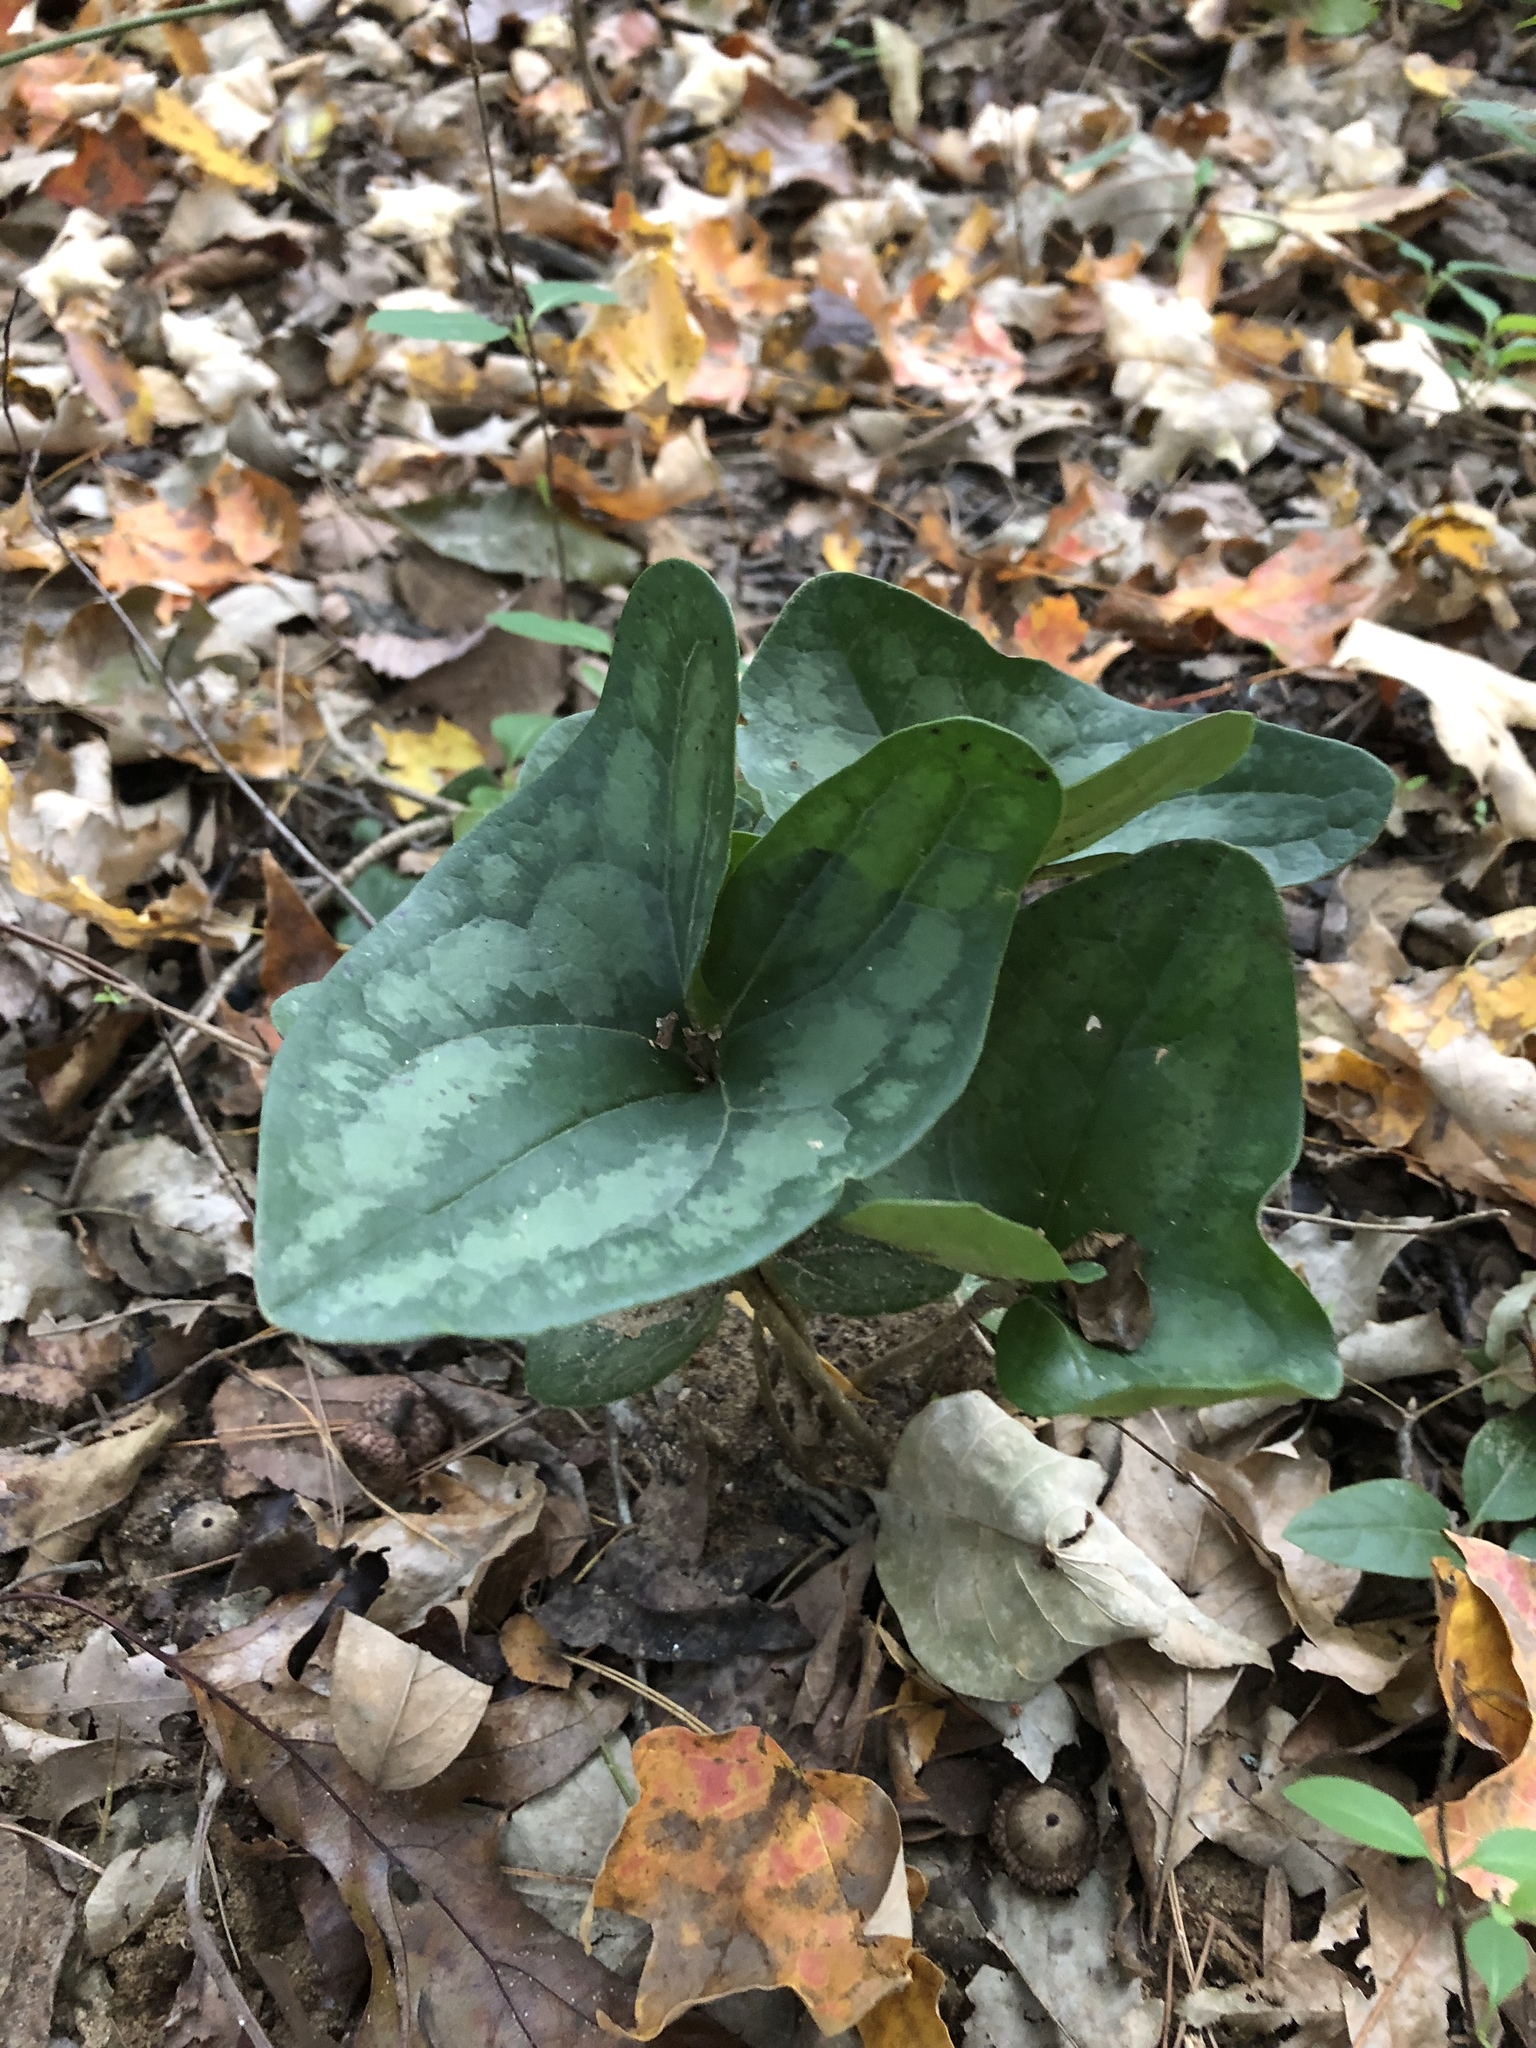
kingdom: Plantae
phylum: Tracheophyta
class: Magnoliopsida
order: Piperales
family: Aristolochiaceae
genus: Hexastylis
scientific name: Hexastylis arifolia
